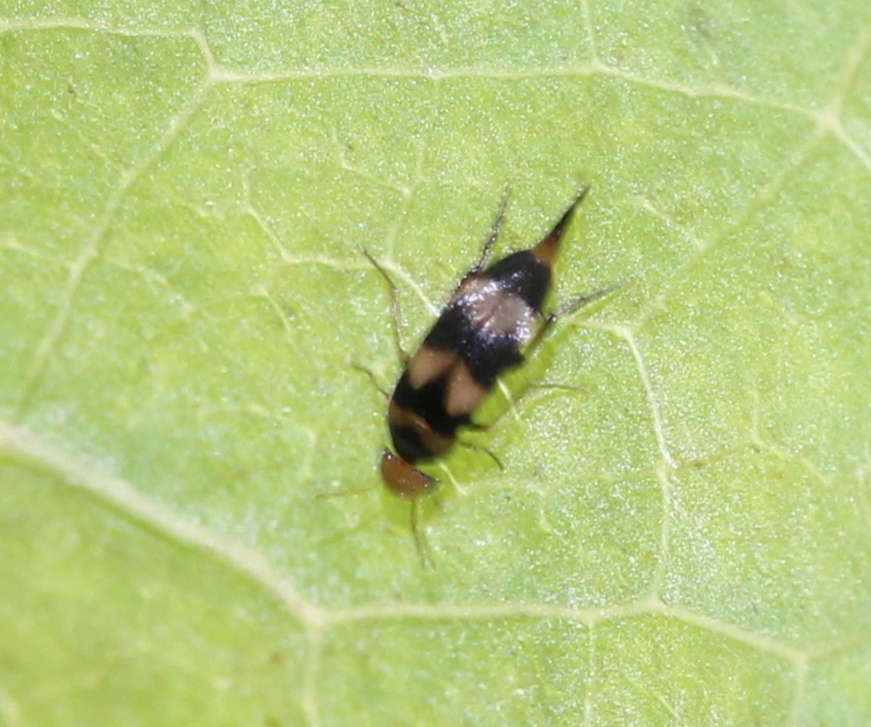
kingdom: Animalia
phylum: Arthropoda
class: Insecta
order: Coleoptera
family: Mordellidae
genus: Mordellistena
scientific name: Mordellistena trifasciata
